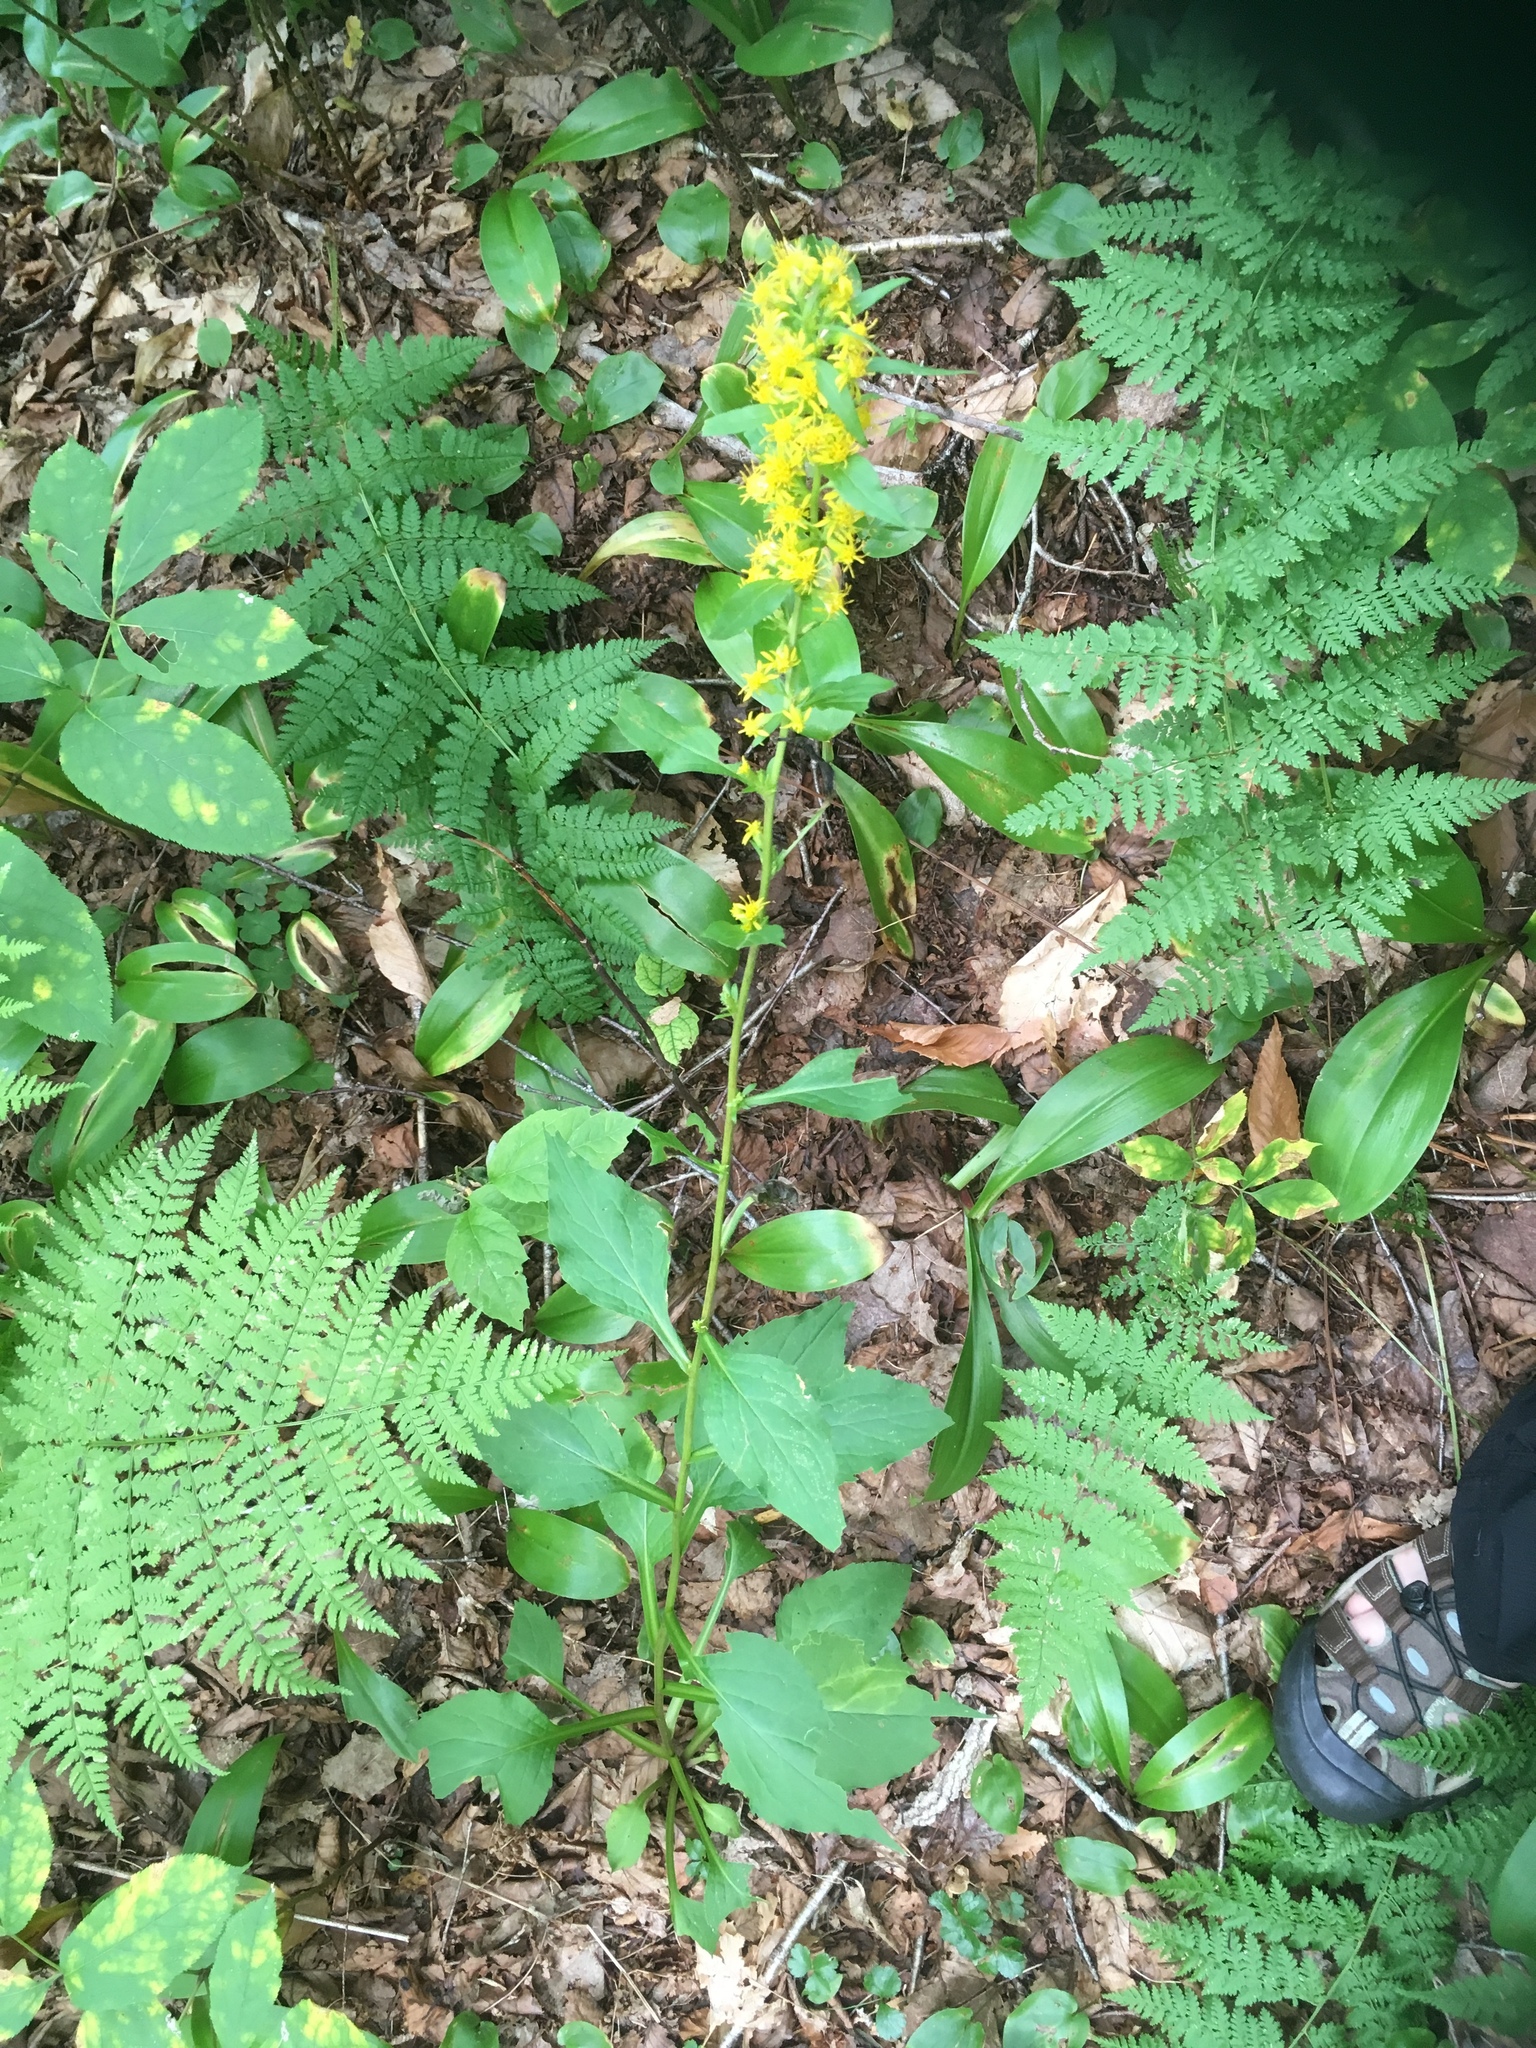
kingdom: Plantae
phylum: Tracheophyta
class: Magnoliopsida
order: Asterales
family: Asteraceae
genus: Solidago
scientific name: Solidago macrophylla
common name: Large-leaved goldenrod
